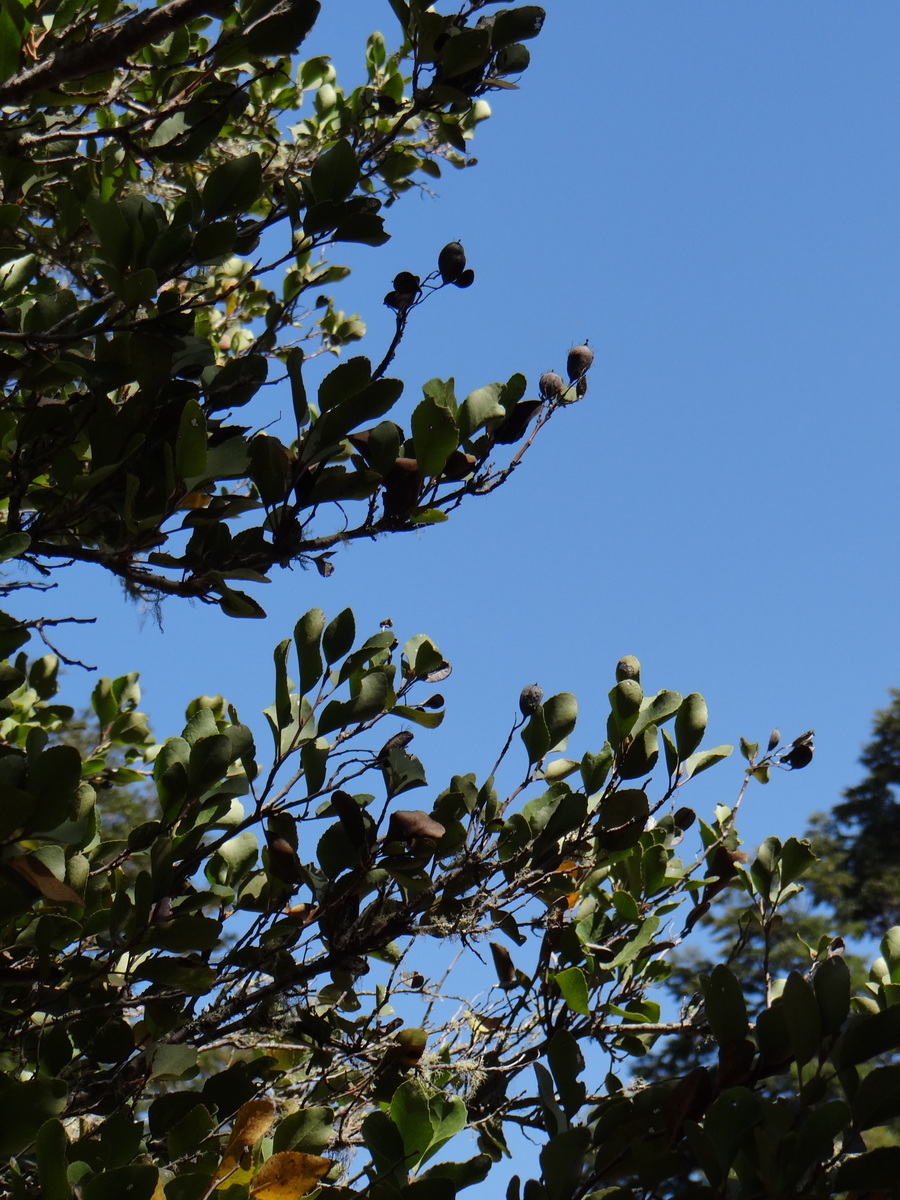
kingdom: Plantae
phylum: Tracheophyta
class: Magnoliopsida
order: Proteales
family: Proteaceae
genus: Lomatia
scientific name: Lomatia hirsuta
